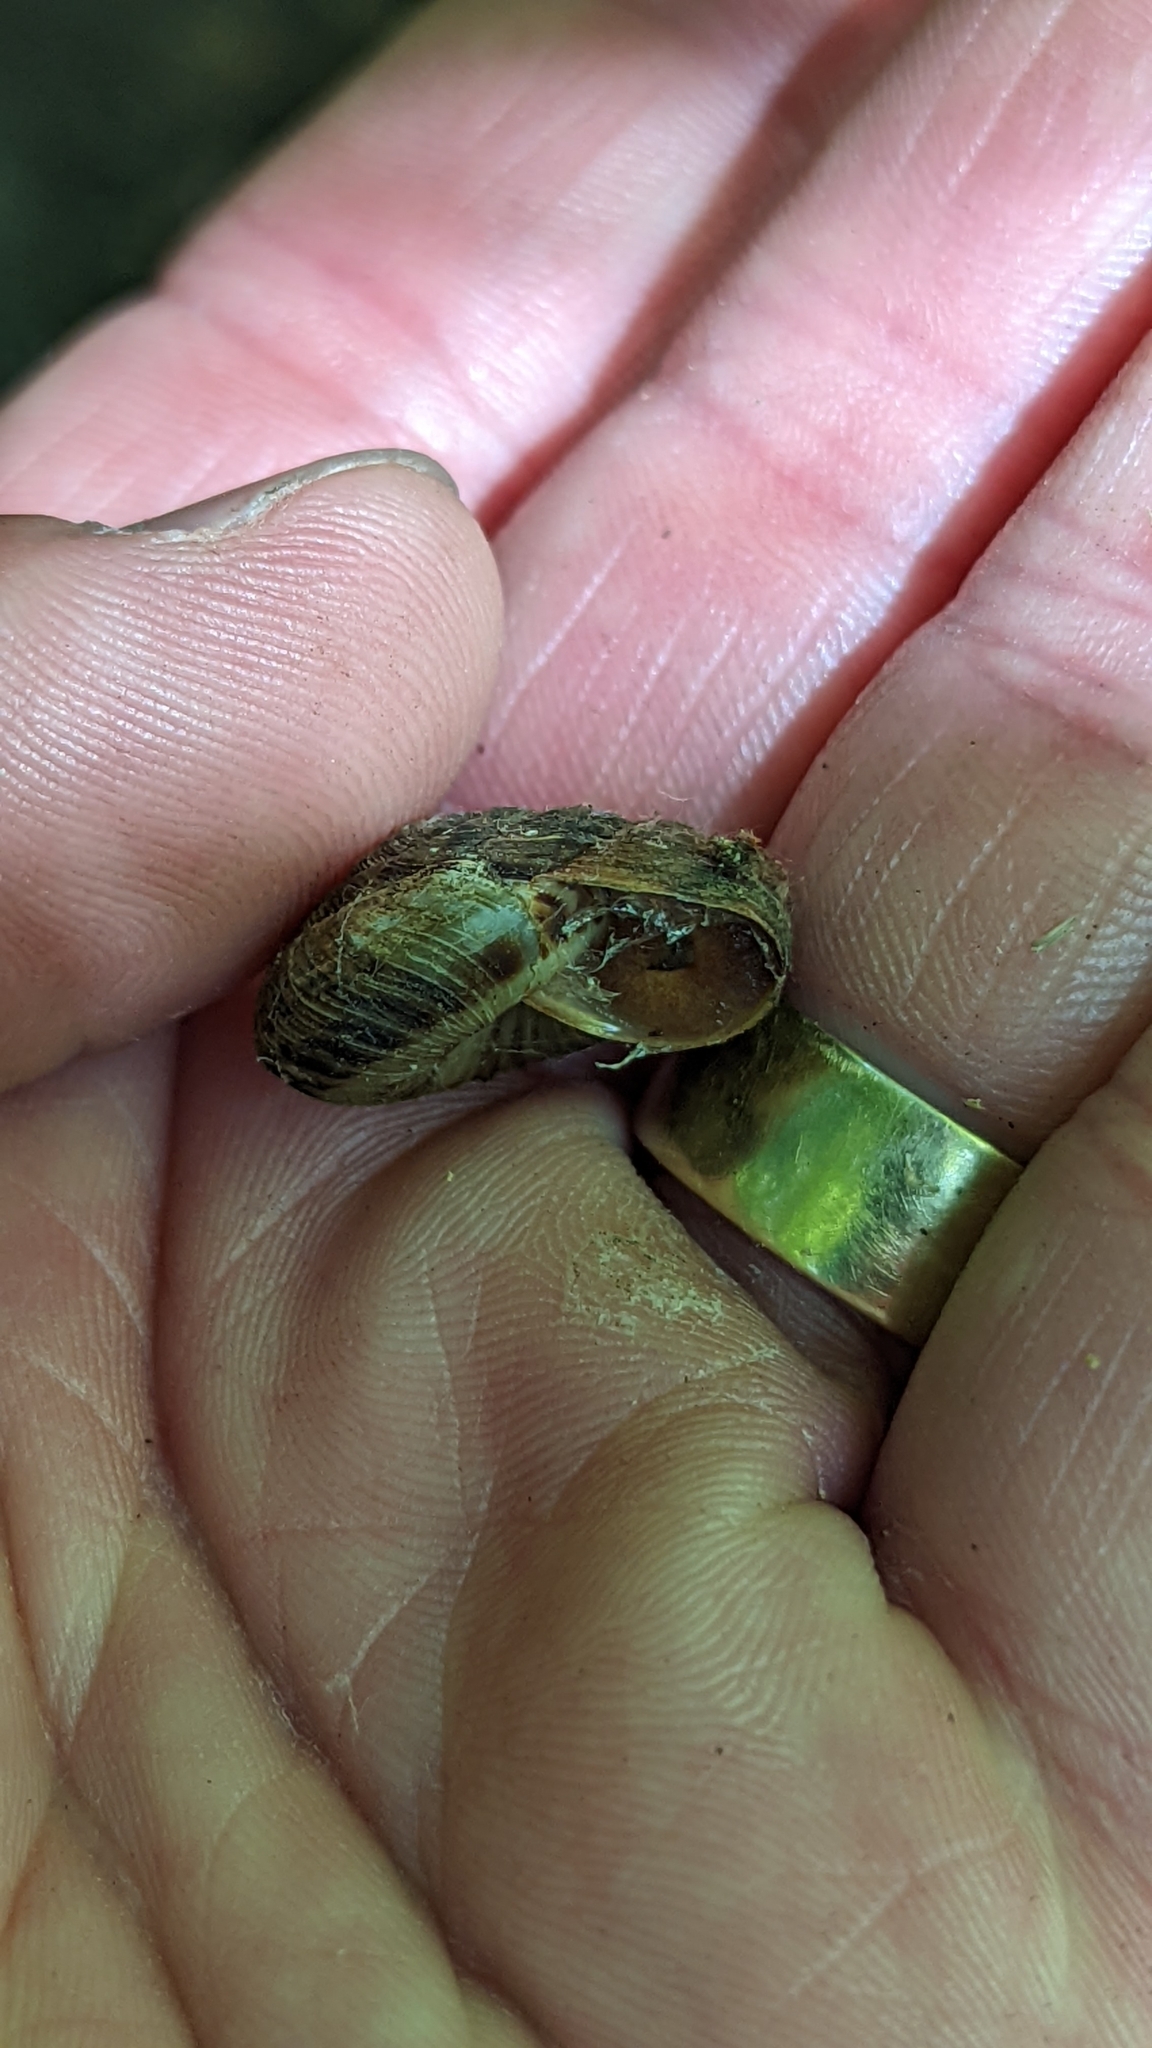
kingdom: Animalia
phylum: Mollusca
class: Gastropoda
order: Stylommatophora
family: Discidae
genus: Anguispira
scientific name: Anguispira alternata
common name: Flamed tigersnail
